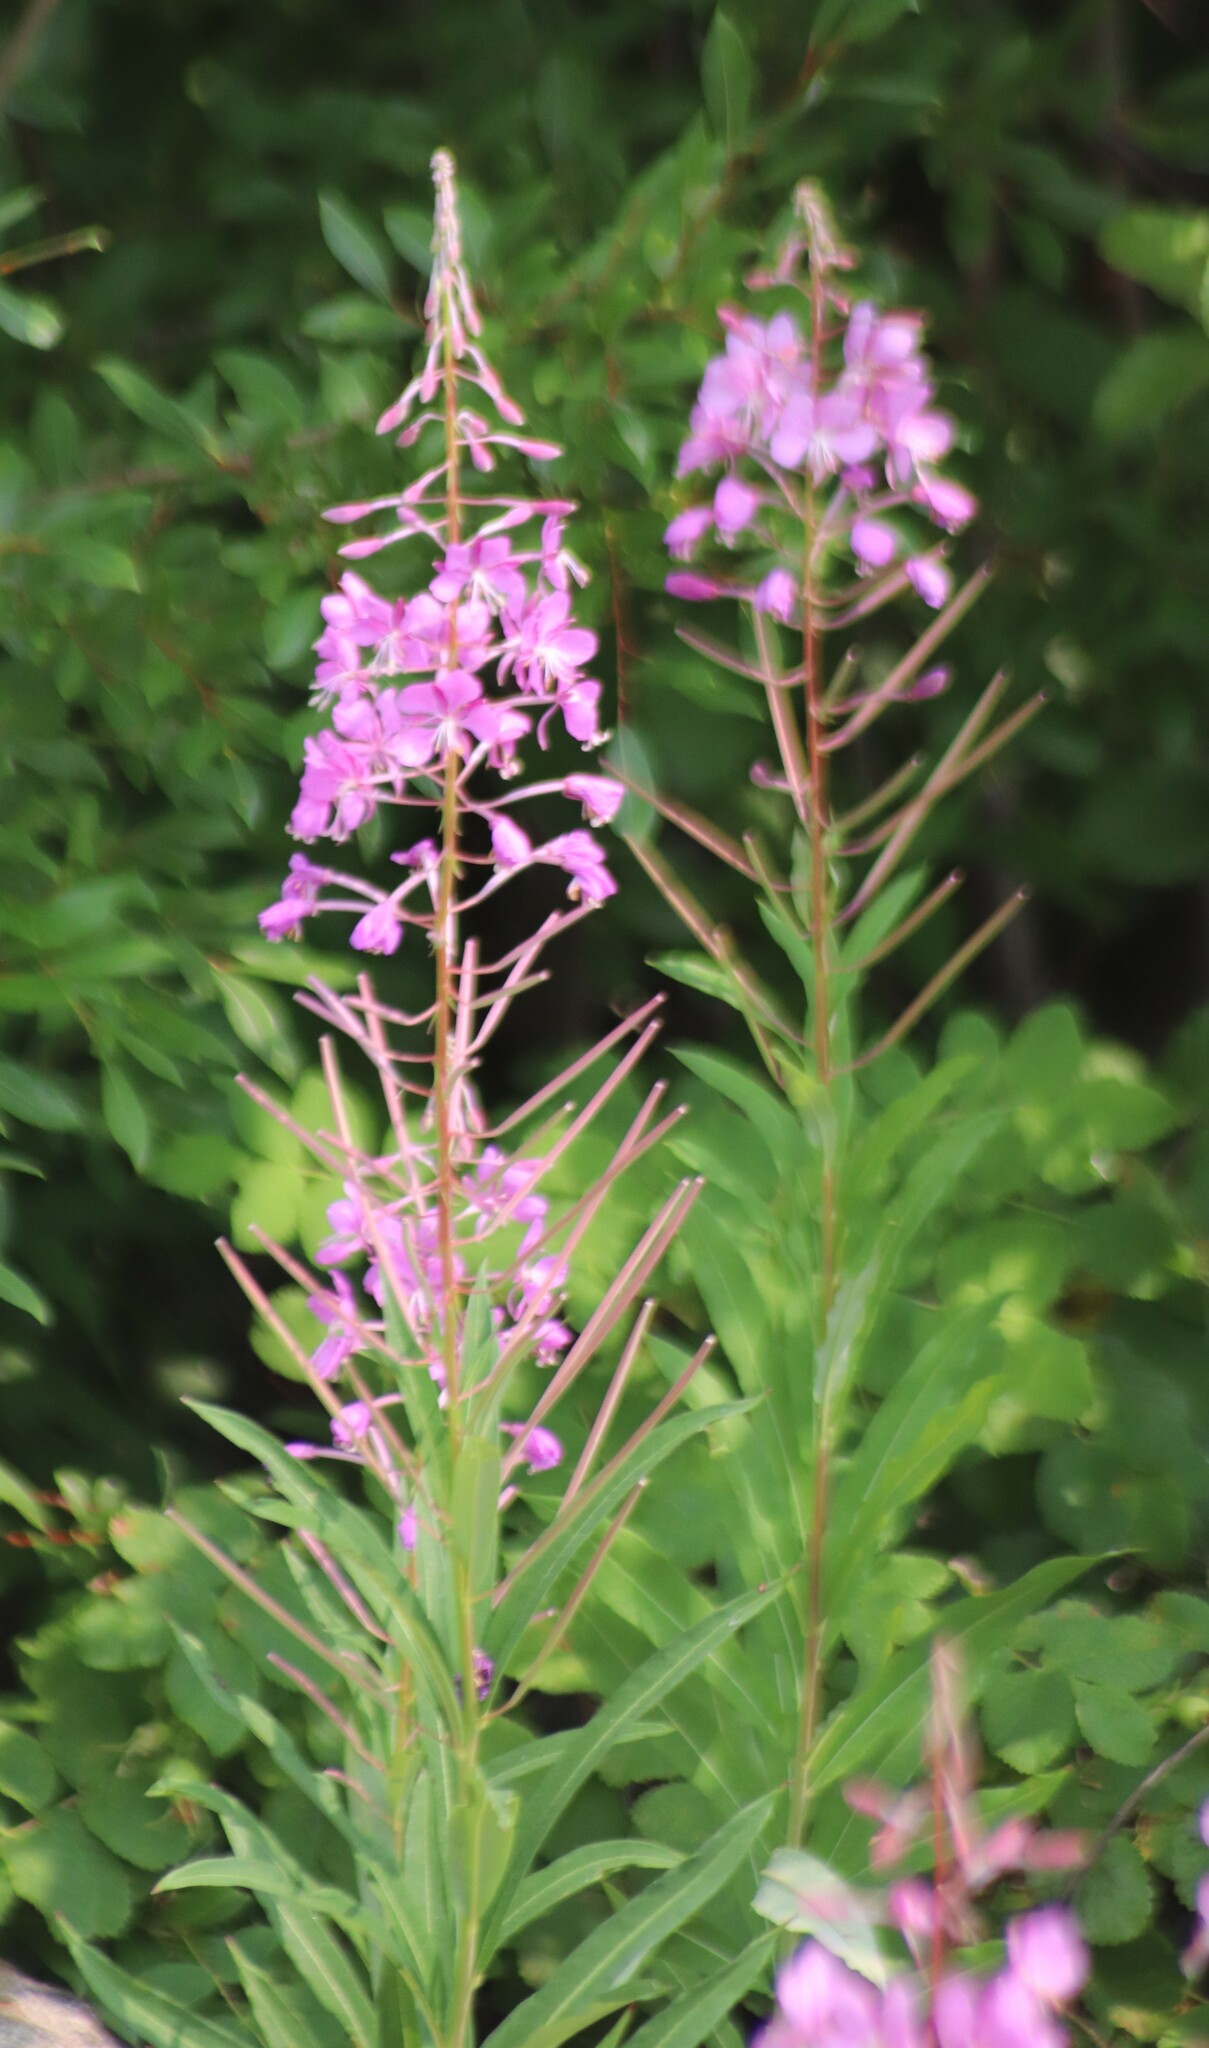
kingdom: Plantae
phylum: Tracheophyta
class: Magnoliopsida
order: Myrtales
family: Onagraceae
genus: Chamaenerion
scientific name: Chamaenerion angustifolium
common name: Fireweed
